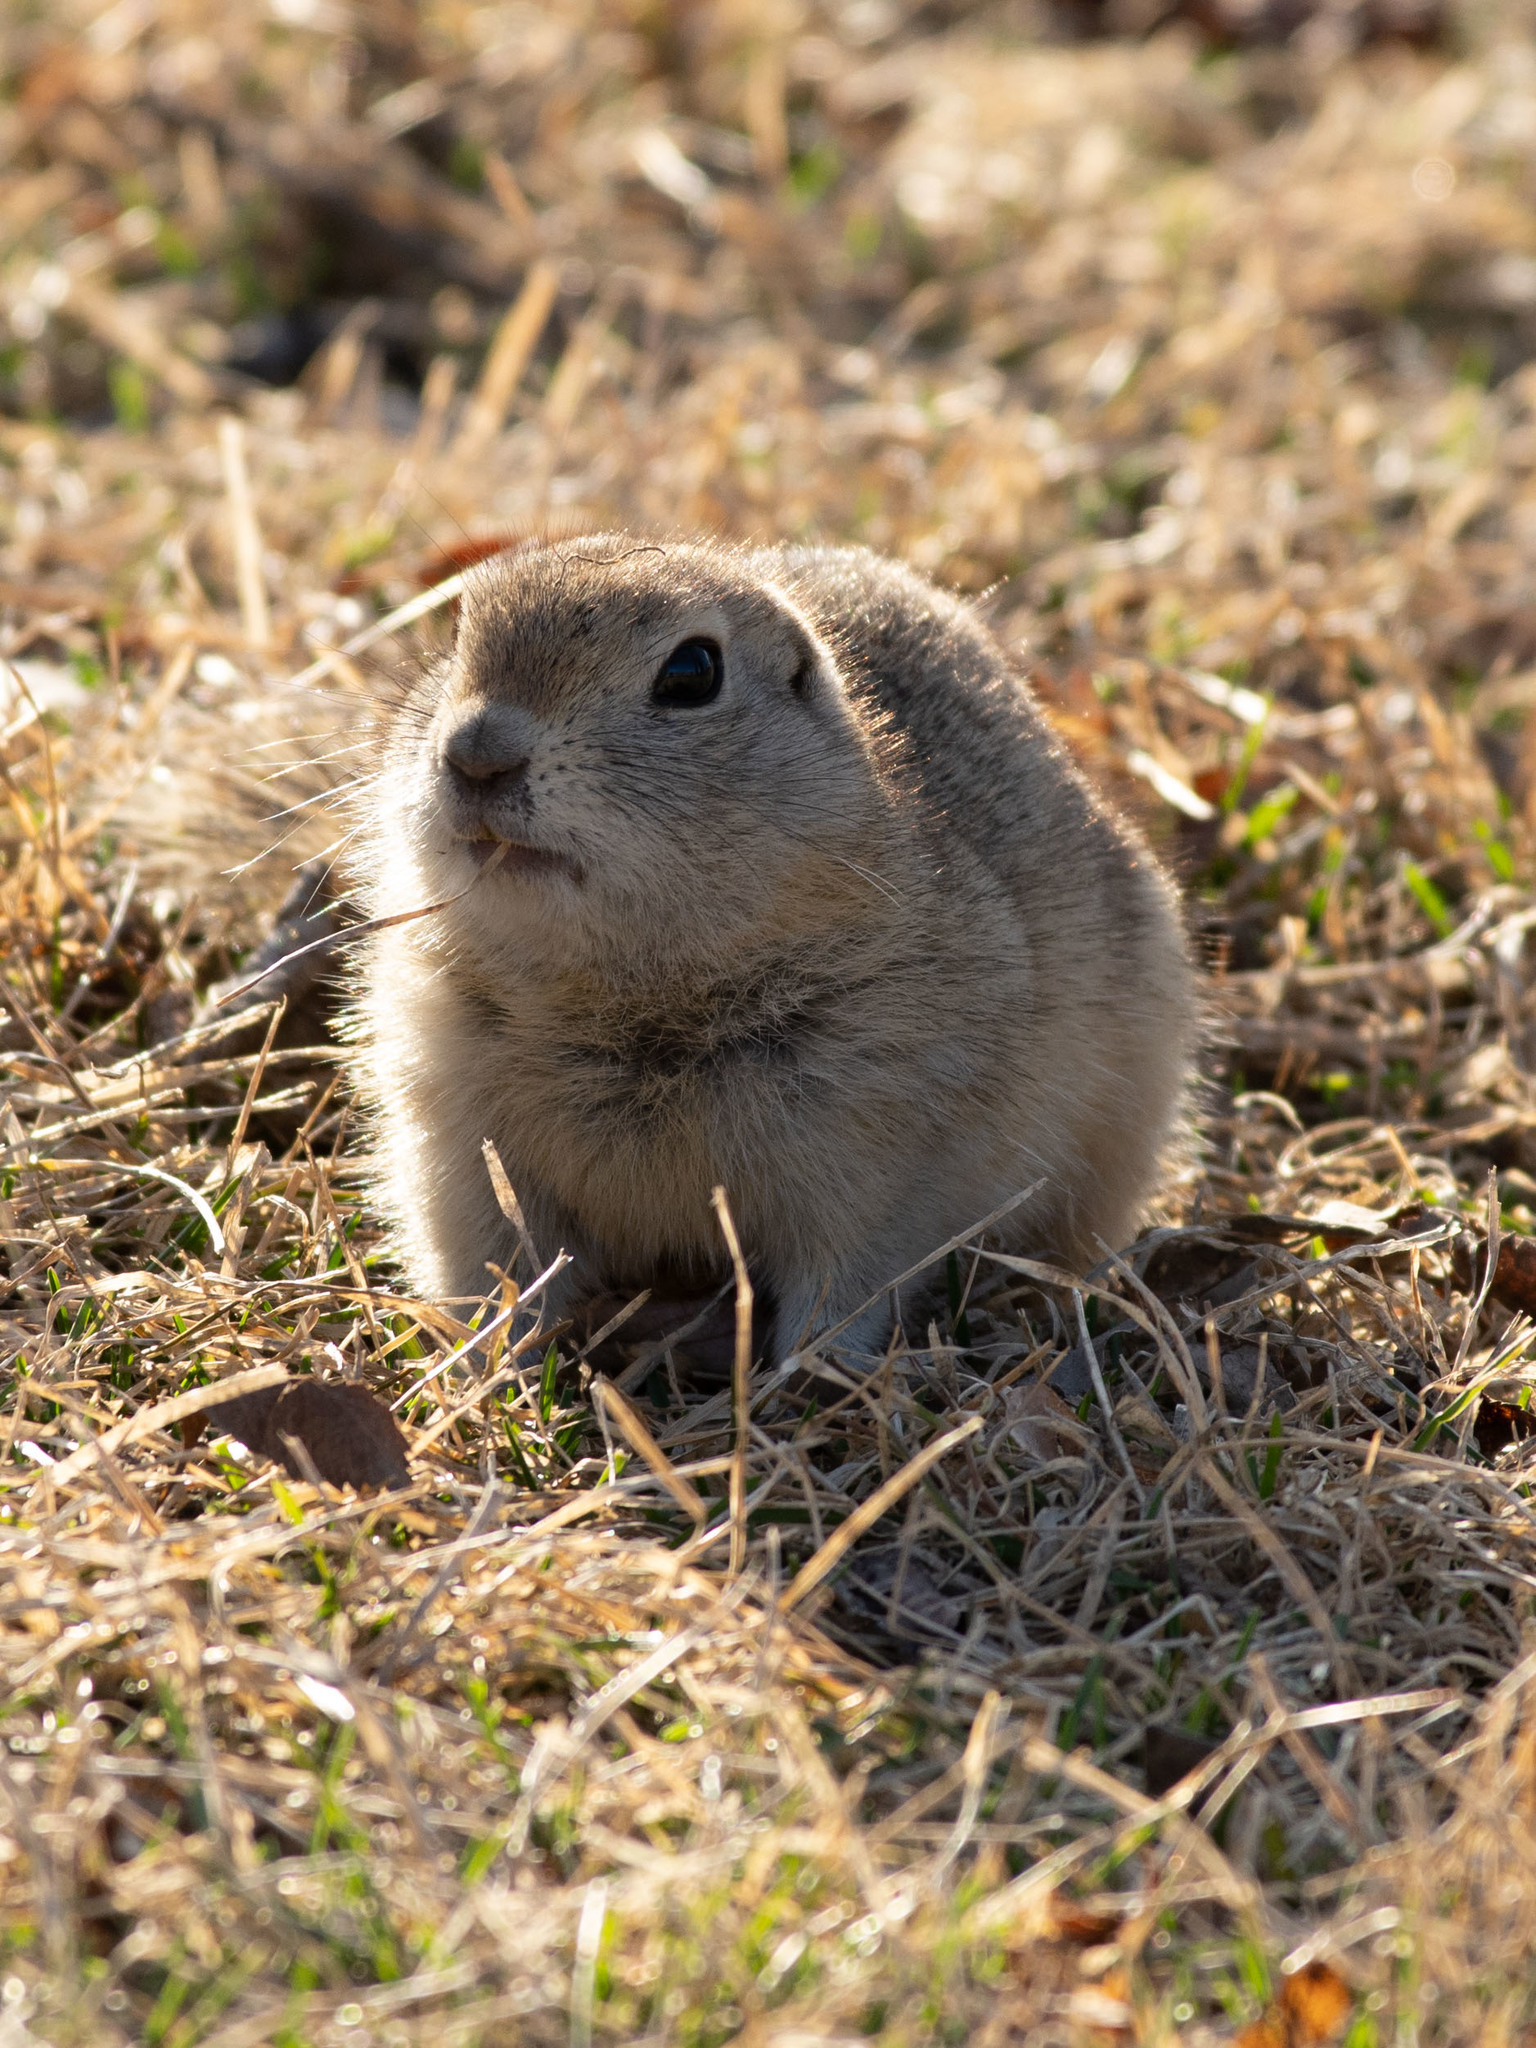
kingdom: Animalia
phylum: Chordata
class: Mammalia
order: Rodentia
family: Sciuridae
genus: Urocitellus
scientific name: Urocitellus richardsonii
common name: Richardson's ground squirrel
